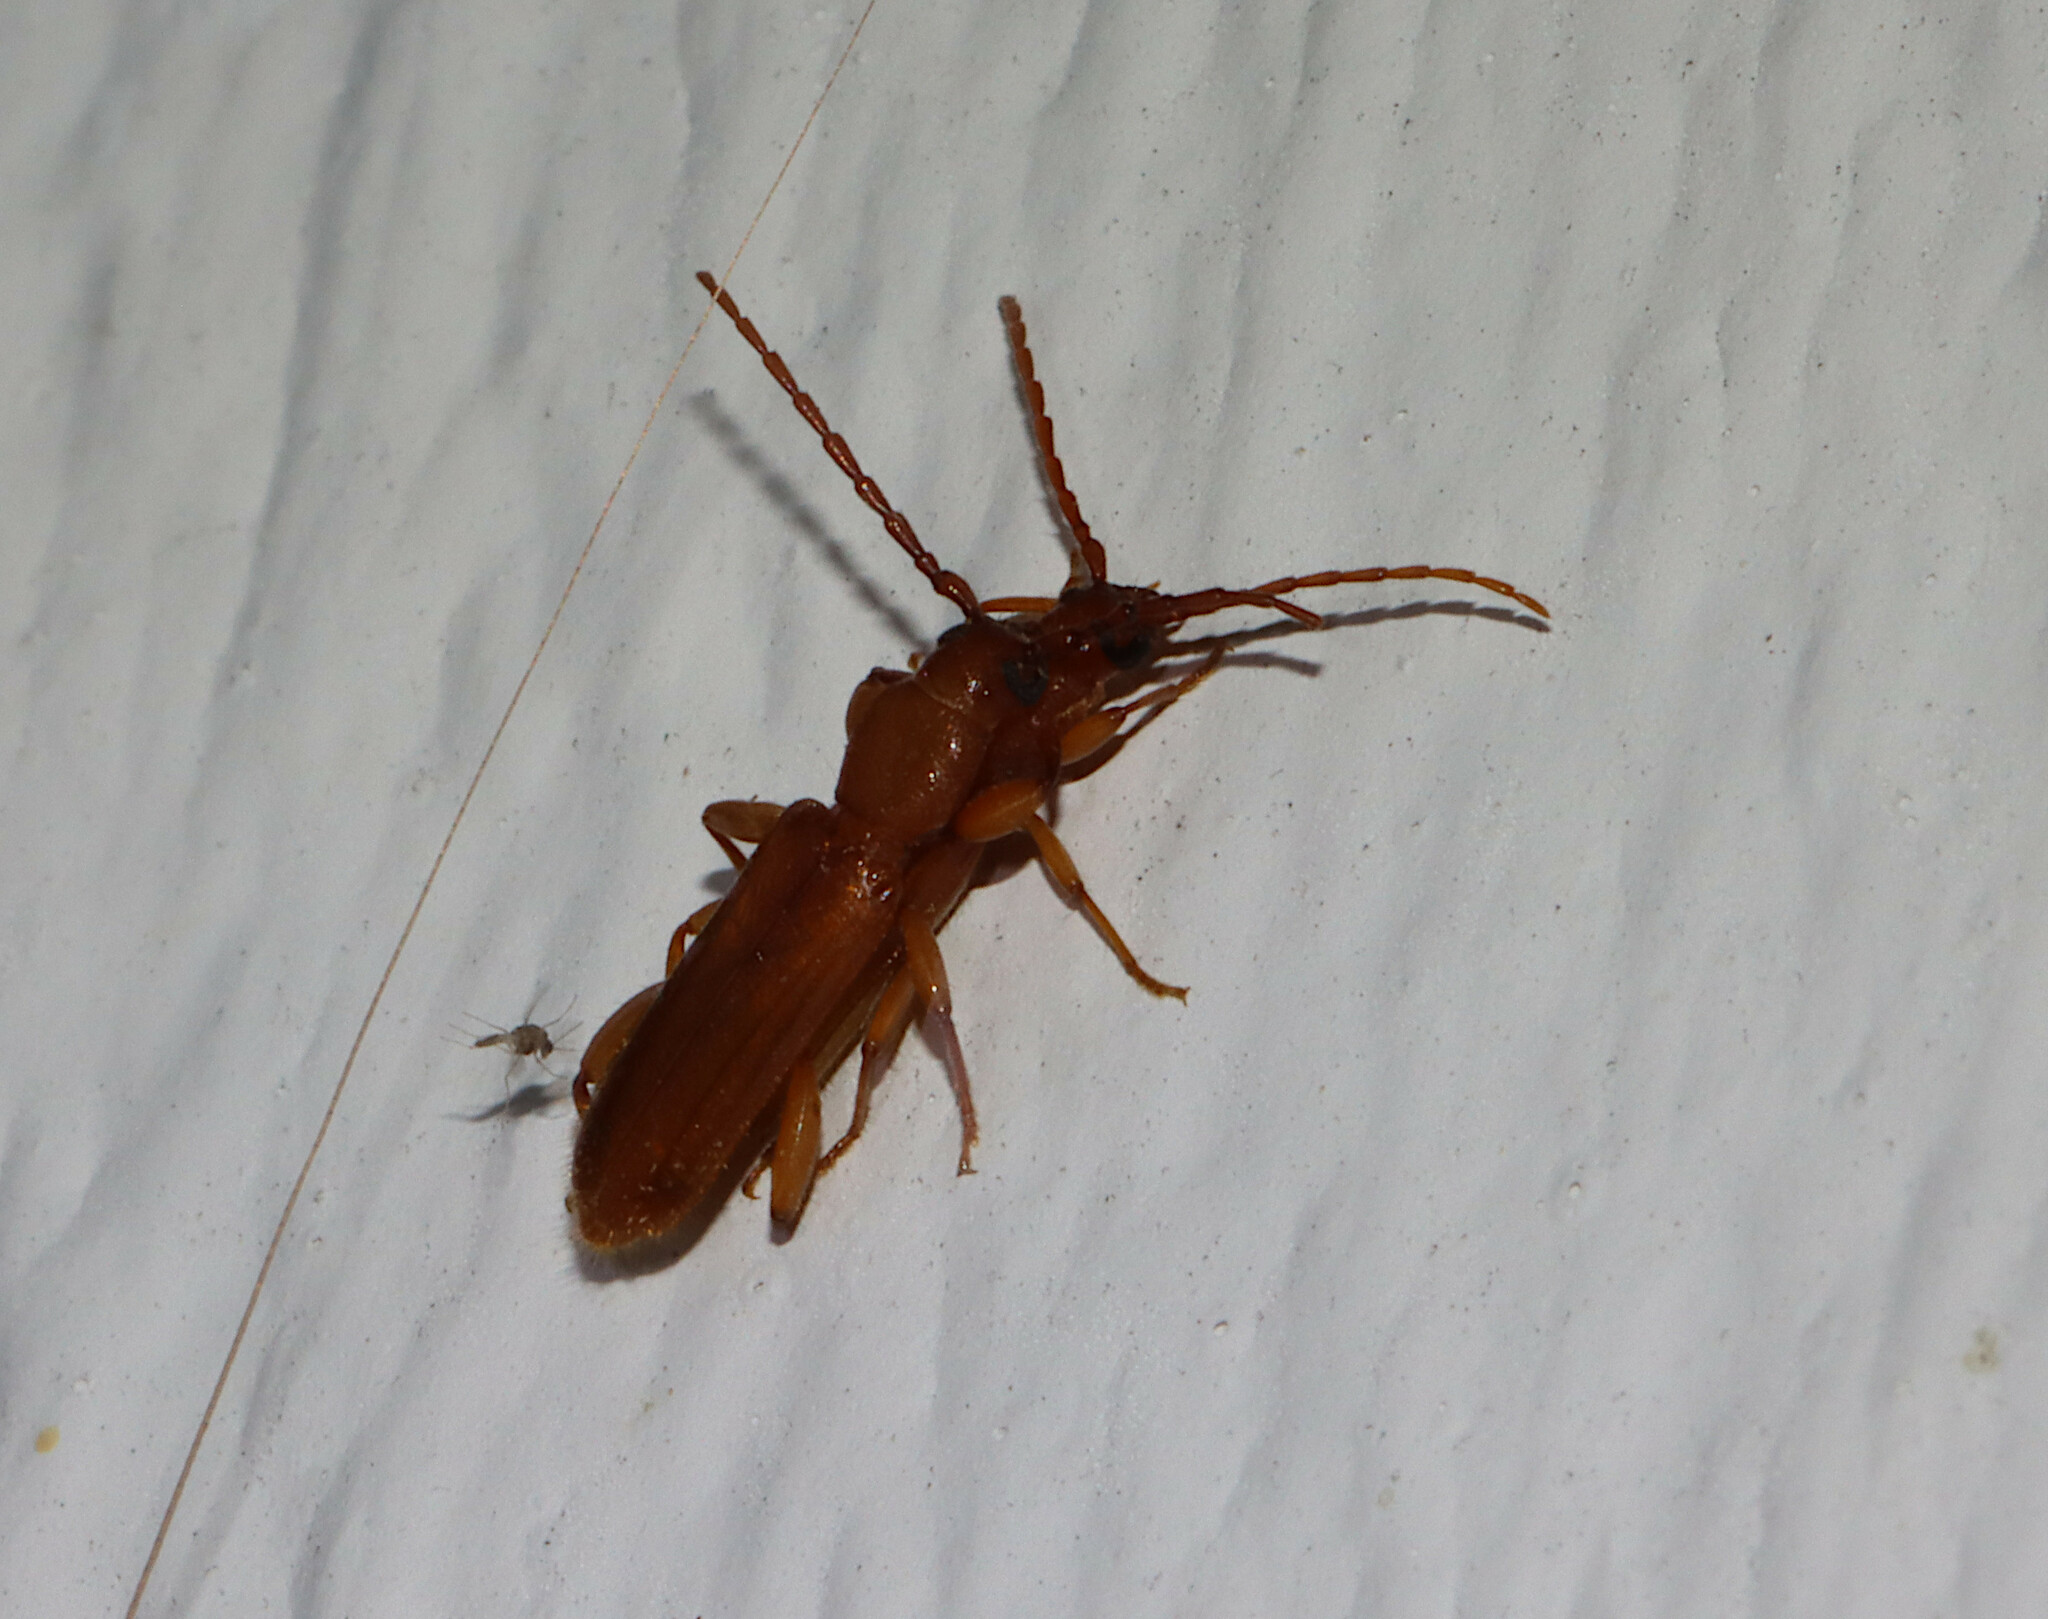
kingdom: Animalia
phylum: Arthropoda
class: Insecta
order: Coleoptera
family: Cerambycidae
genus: Smodicum
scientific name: Smodicum cucujiforme
